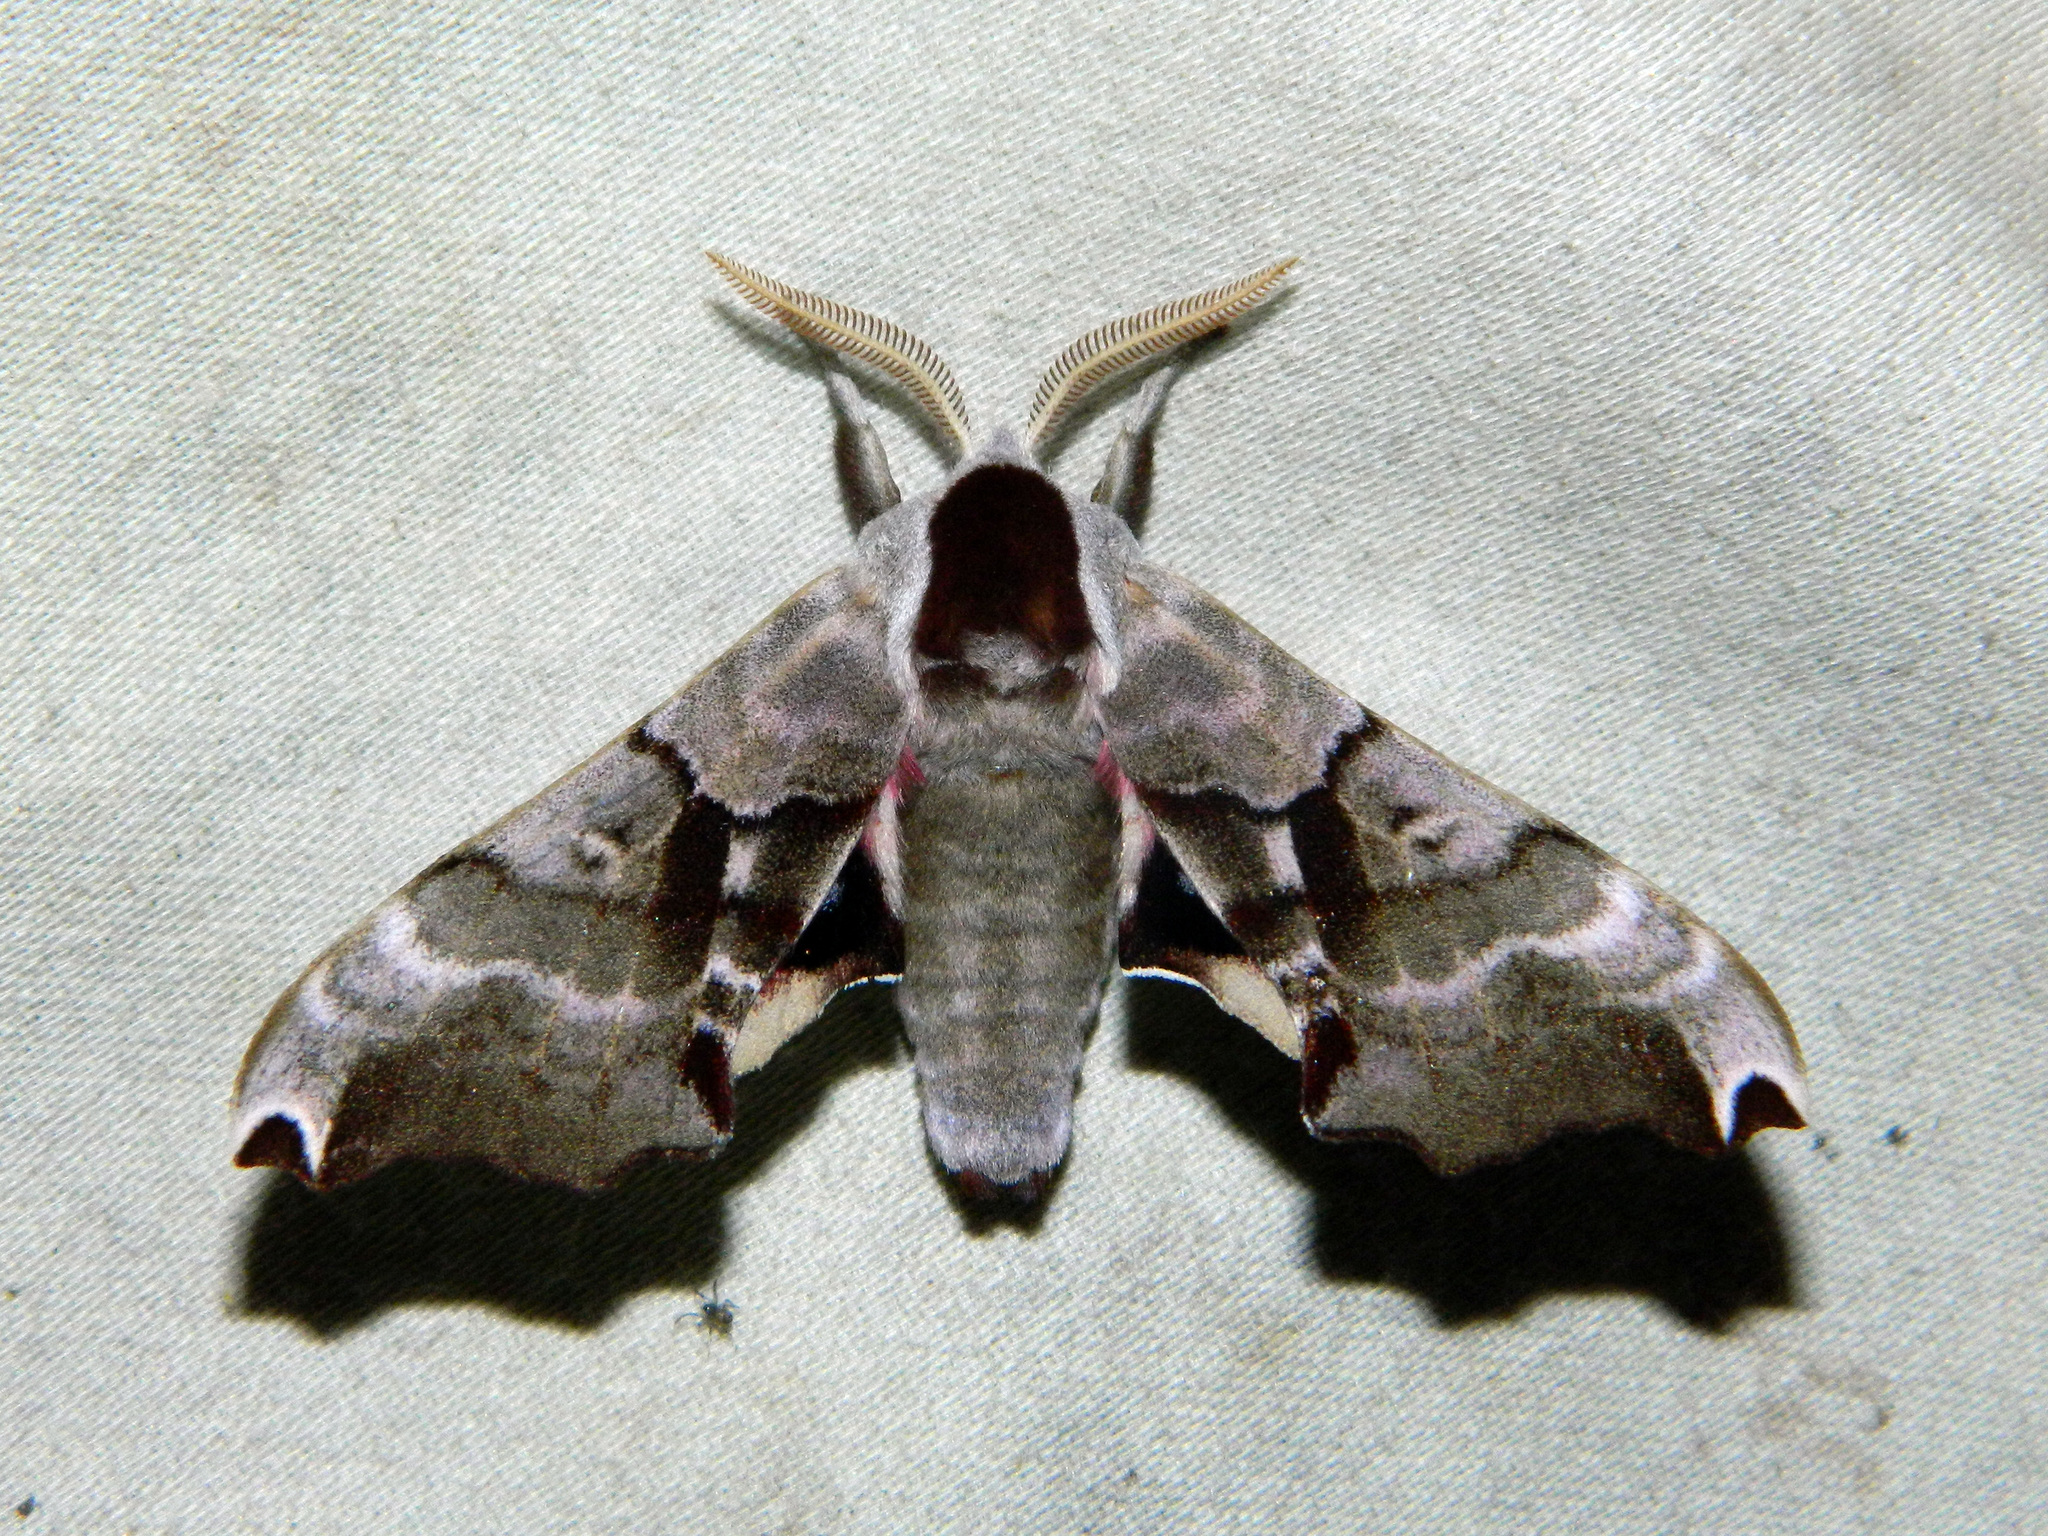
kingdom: Animalia
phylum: Arthropoda
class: Insecta
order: Lepidoptera
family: Sphingidae
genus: Smerinthus
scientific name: Smerinthus jamaicensis
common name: Twin spotted sphinx
